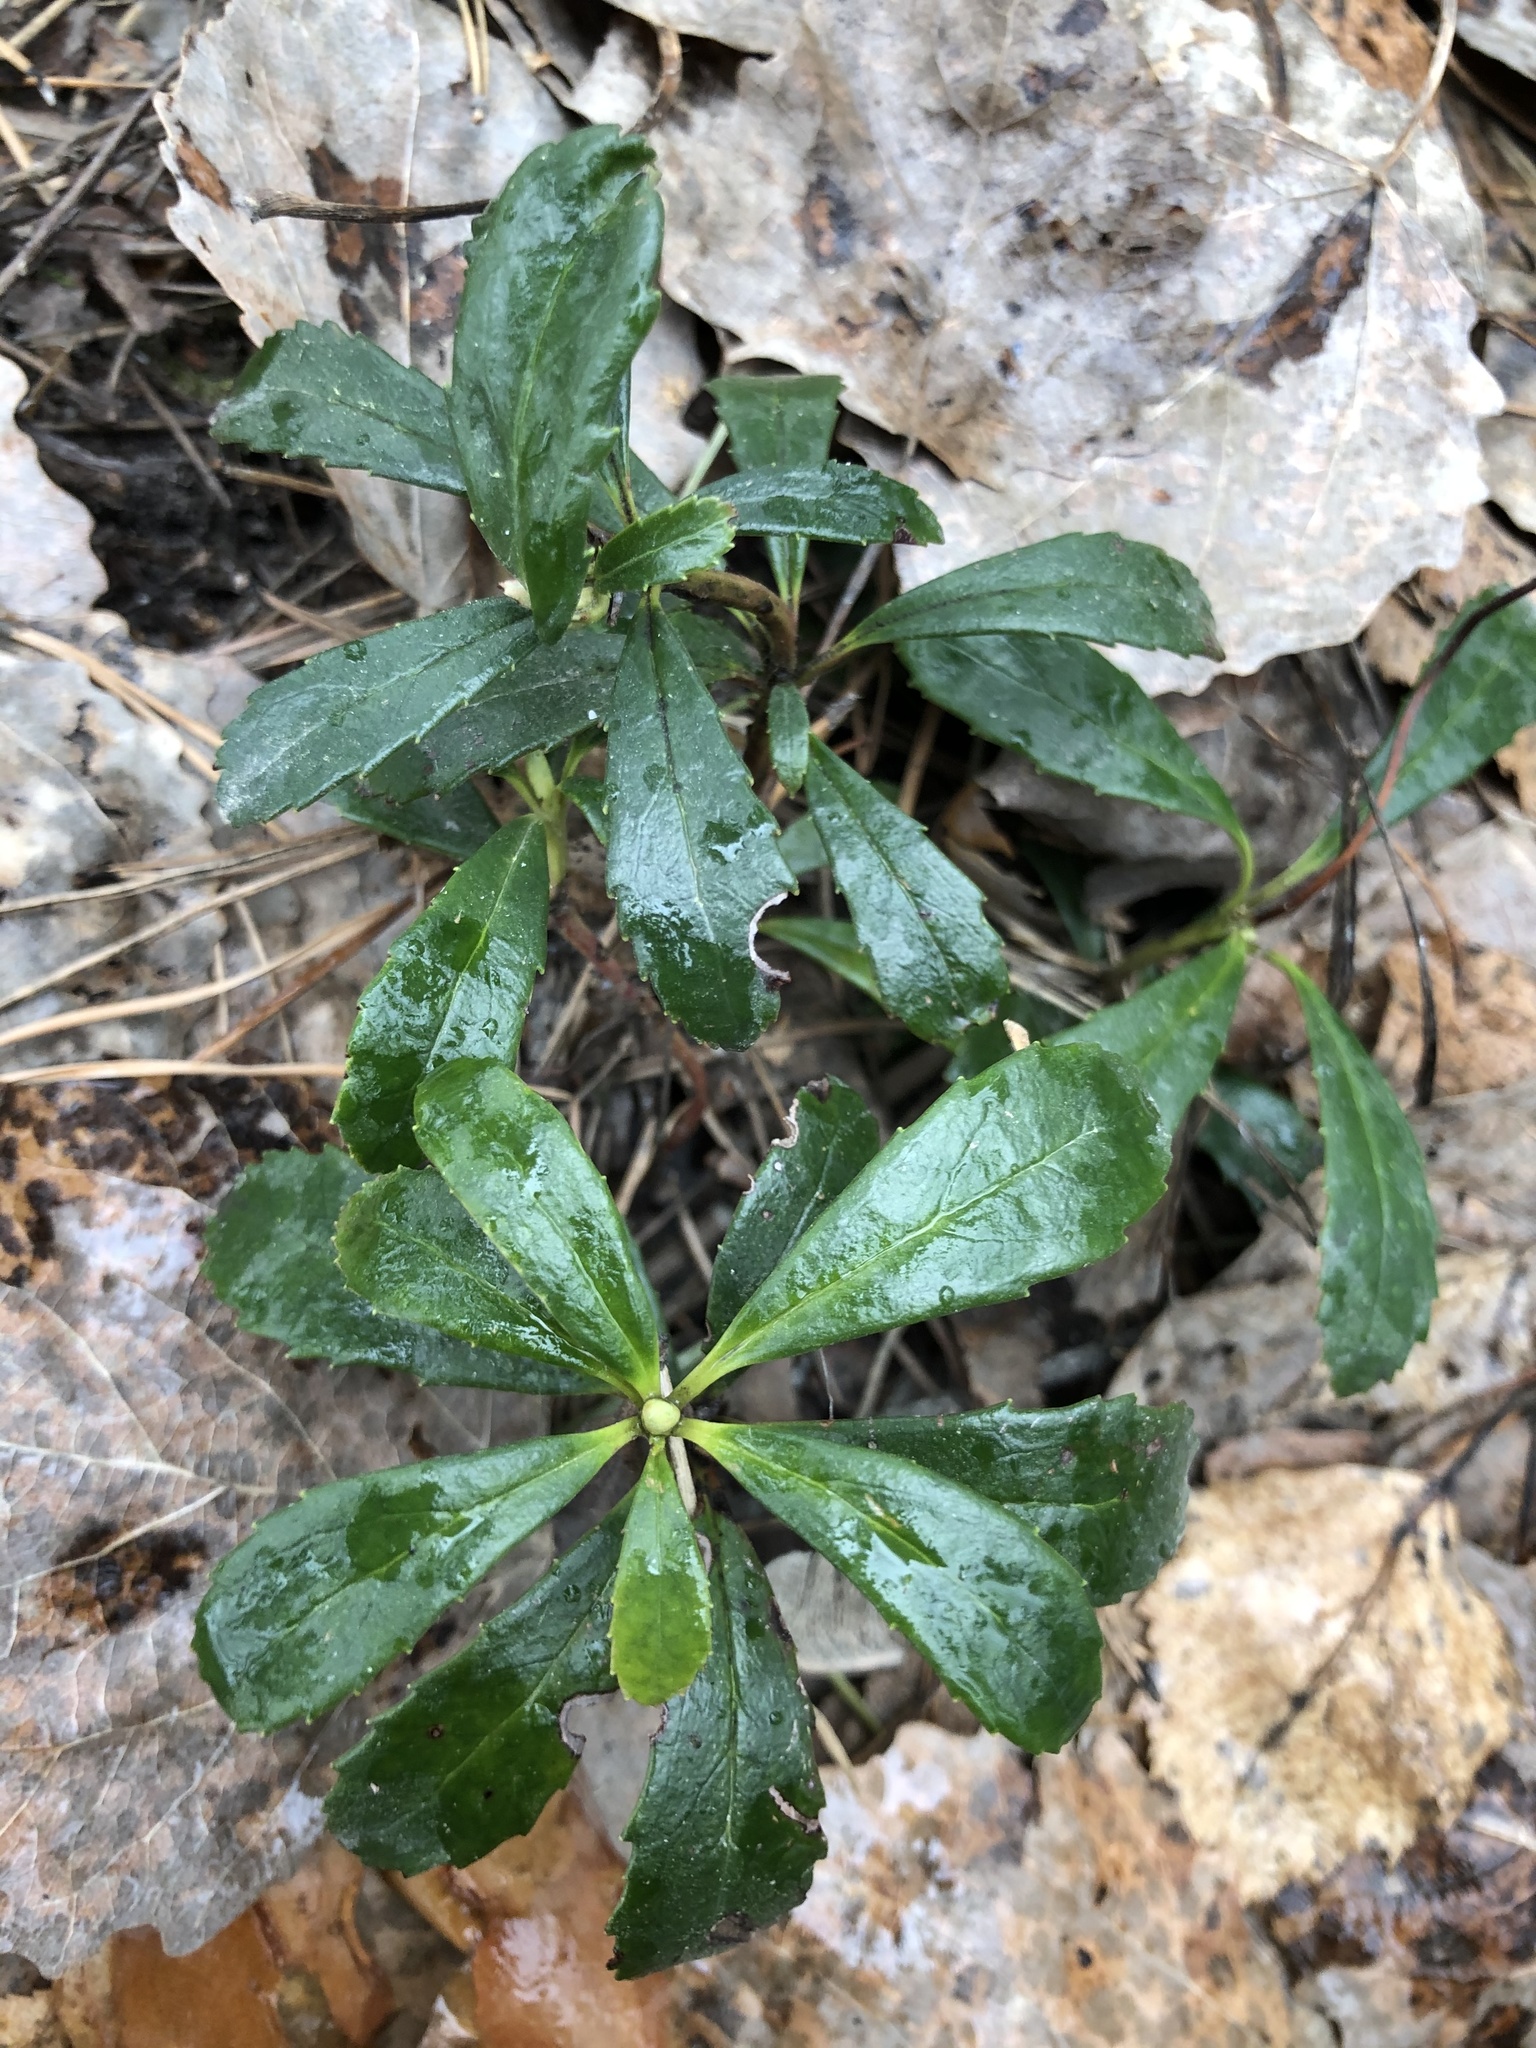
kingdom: Plantae
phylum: Tracheophyta
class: Magnoliopsida
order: Ericales
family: Ericaceae
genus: Chimaphila
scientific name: Chimaphila umbellata
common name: Pipsissewa
